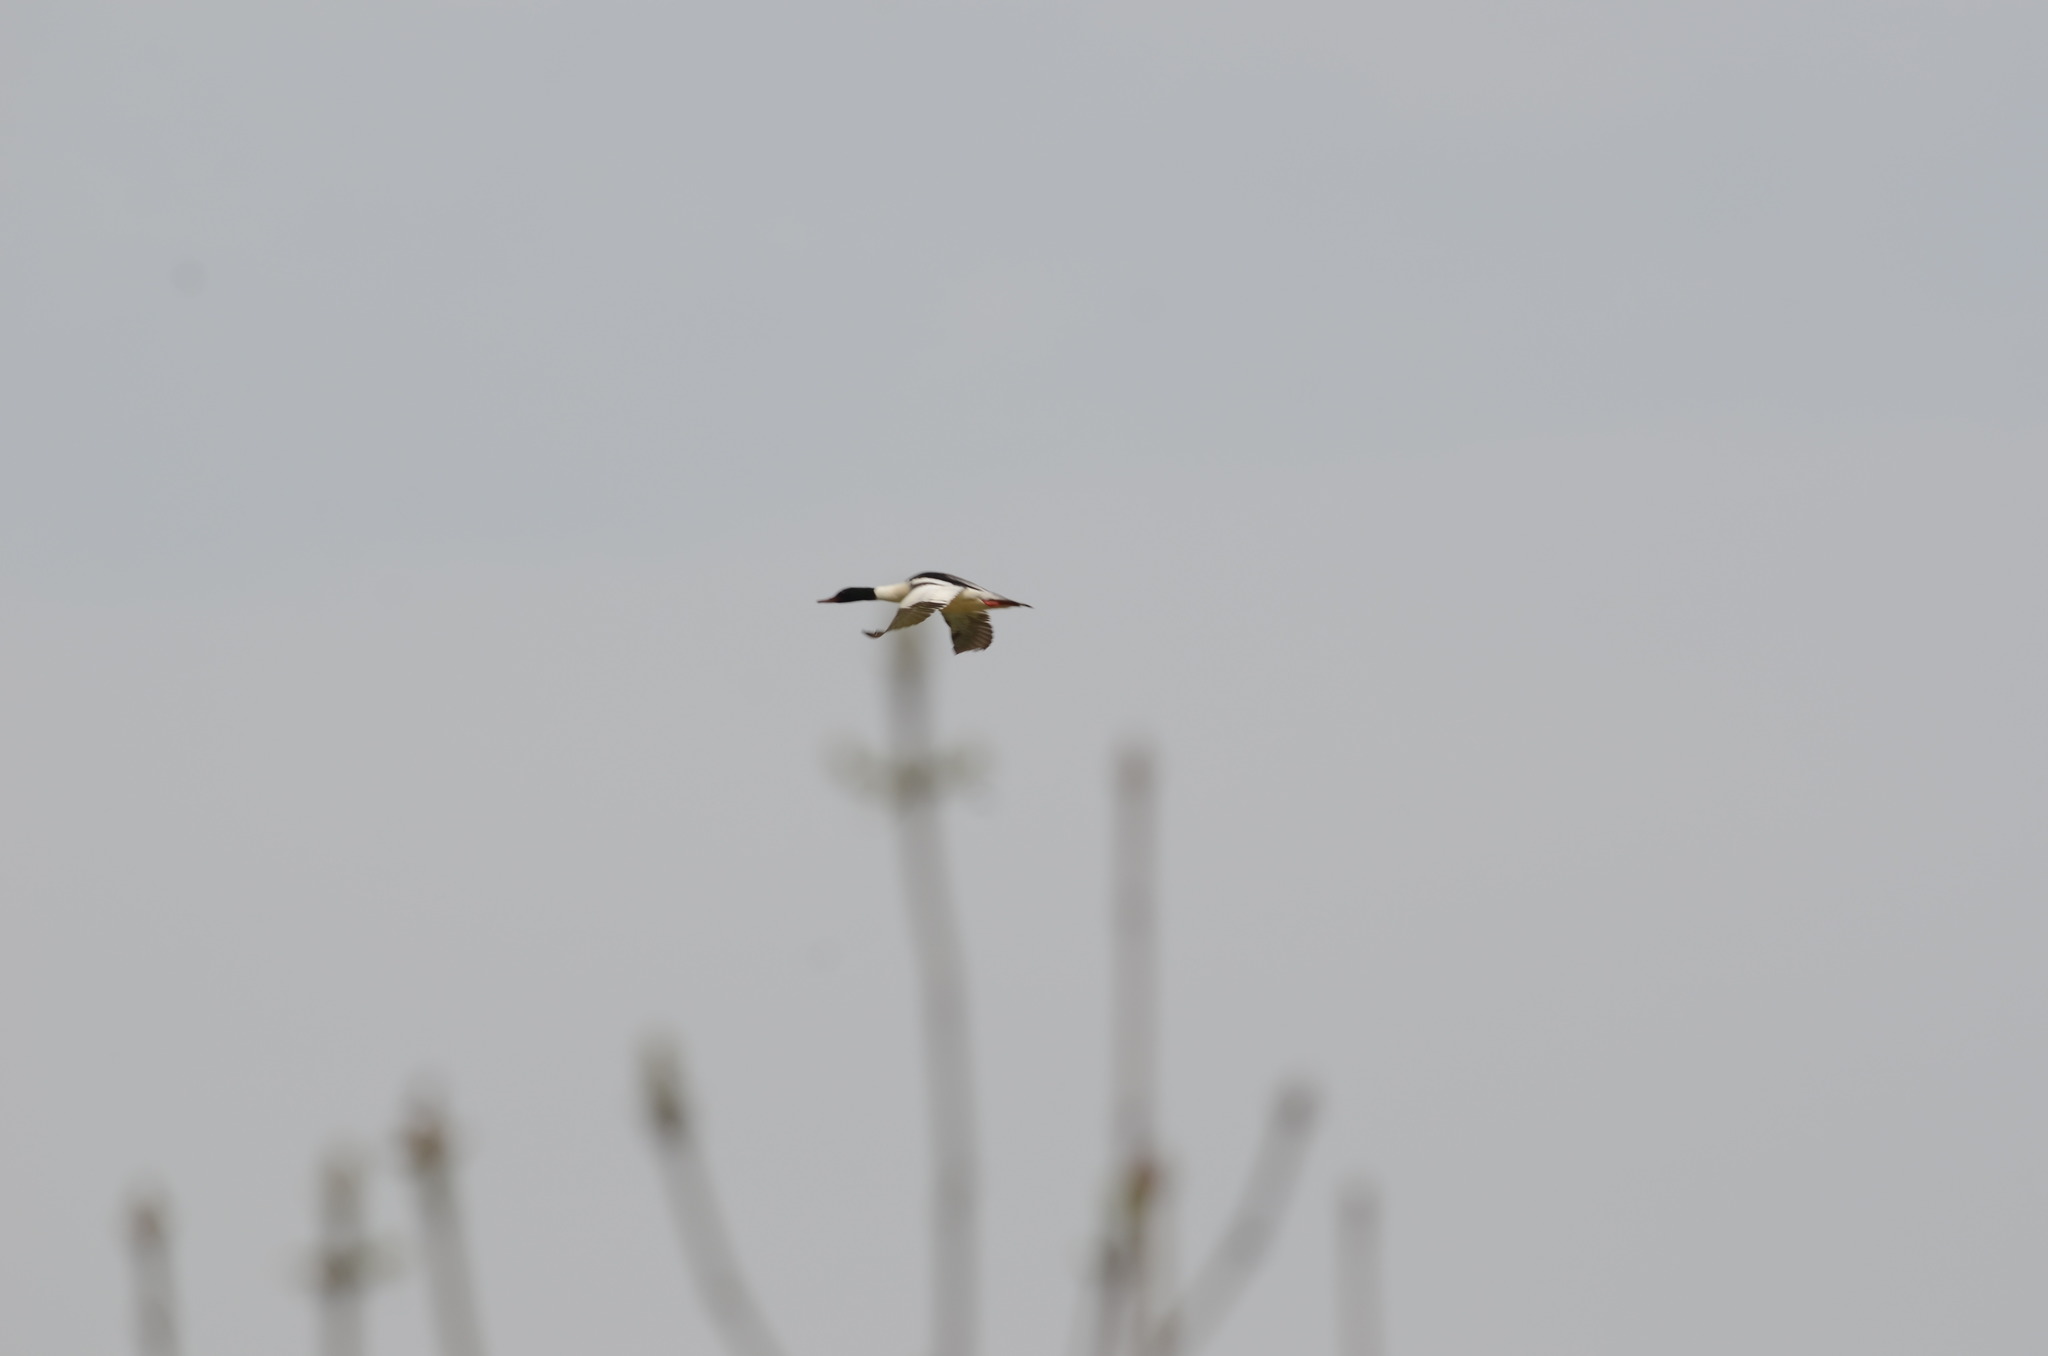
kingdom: Animalia
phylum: Chordata
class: Aves
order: Anseriformes
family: Anatidae
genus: Mergus
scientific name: Mergus merganser
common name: Common merganser
